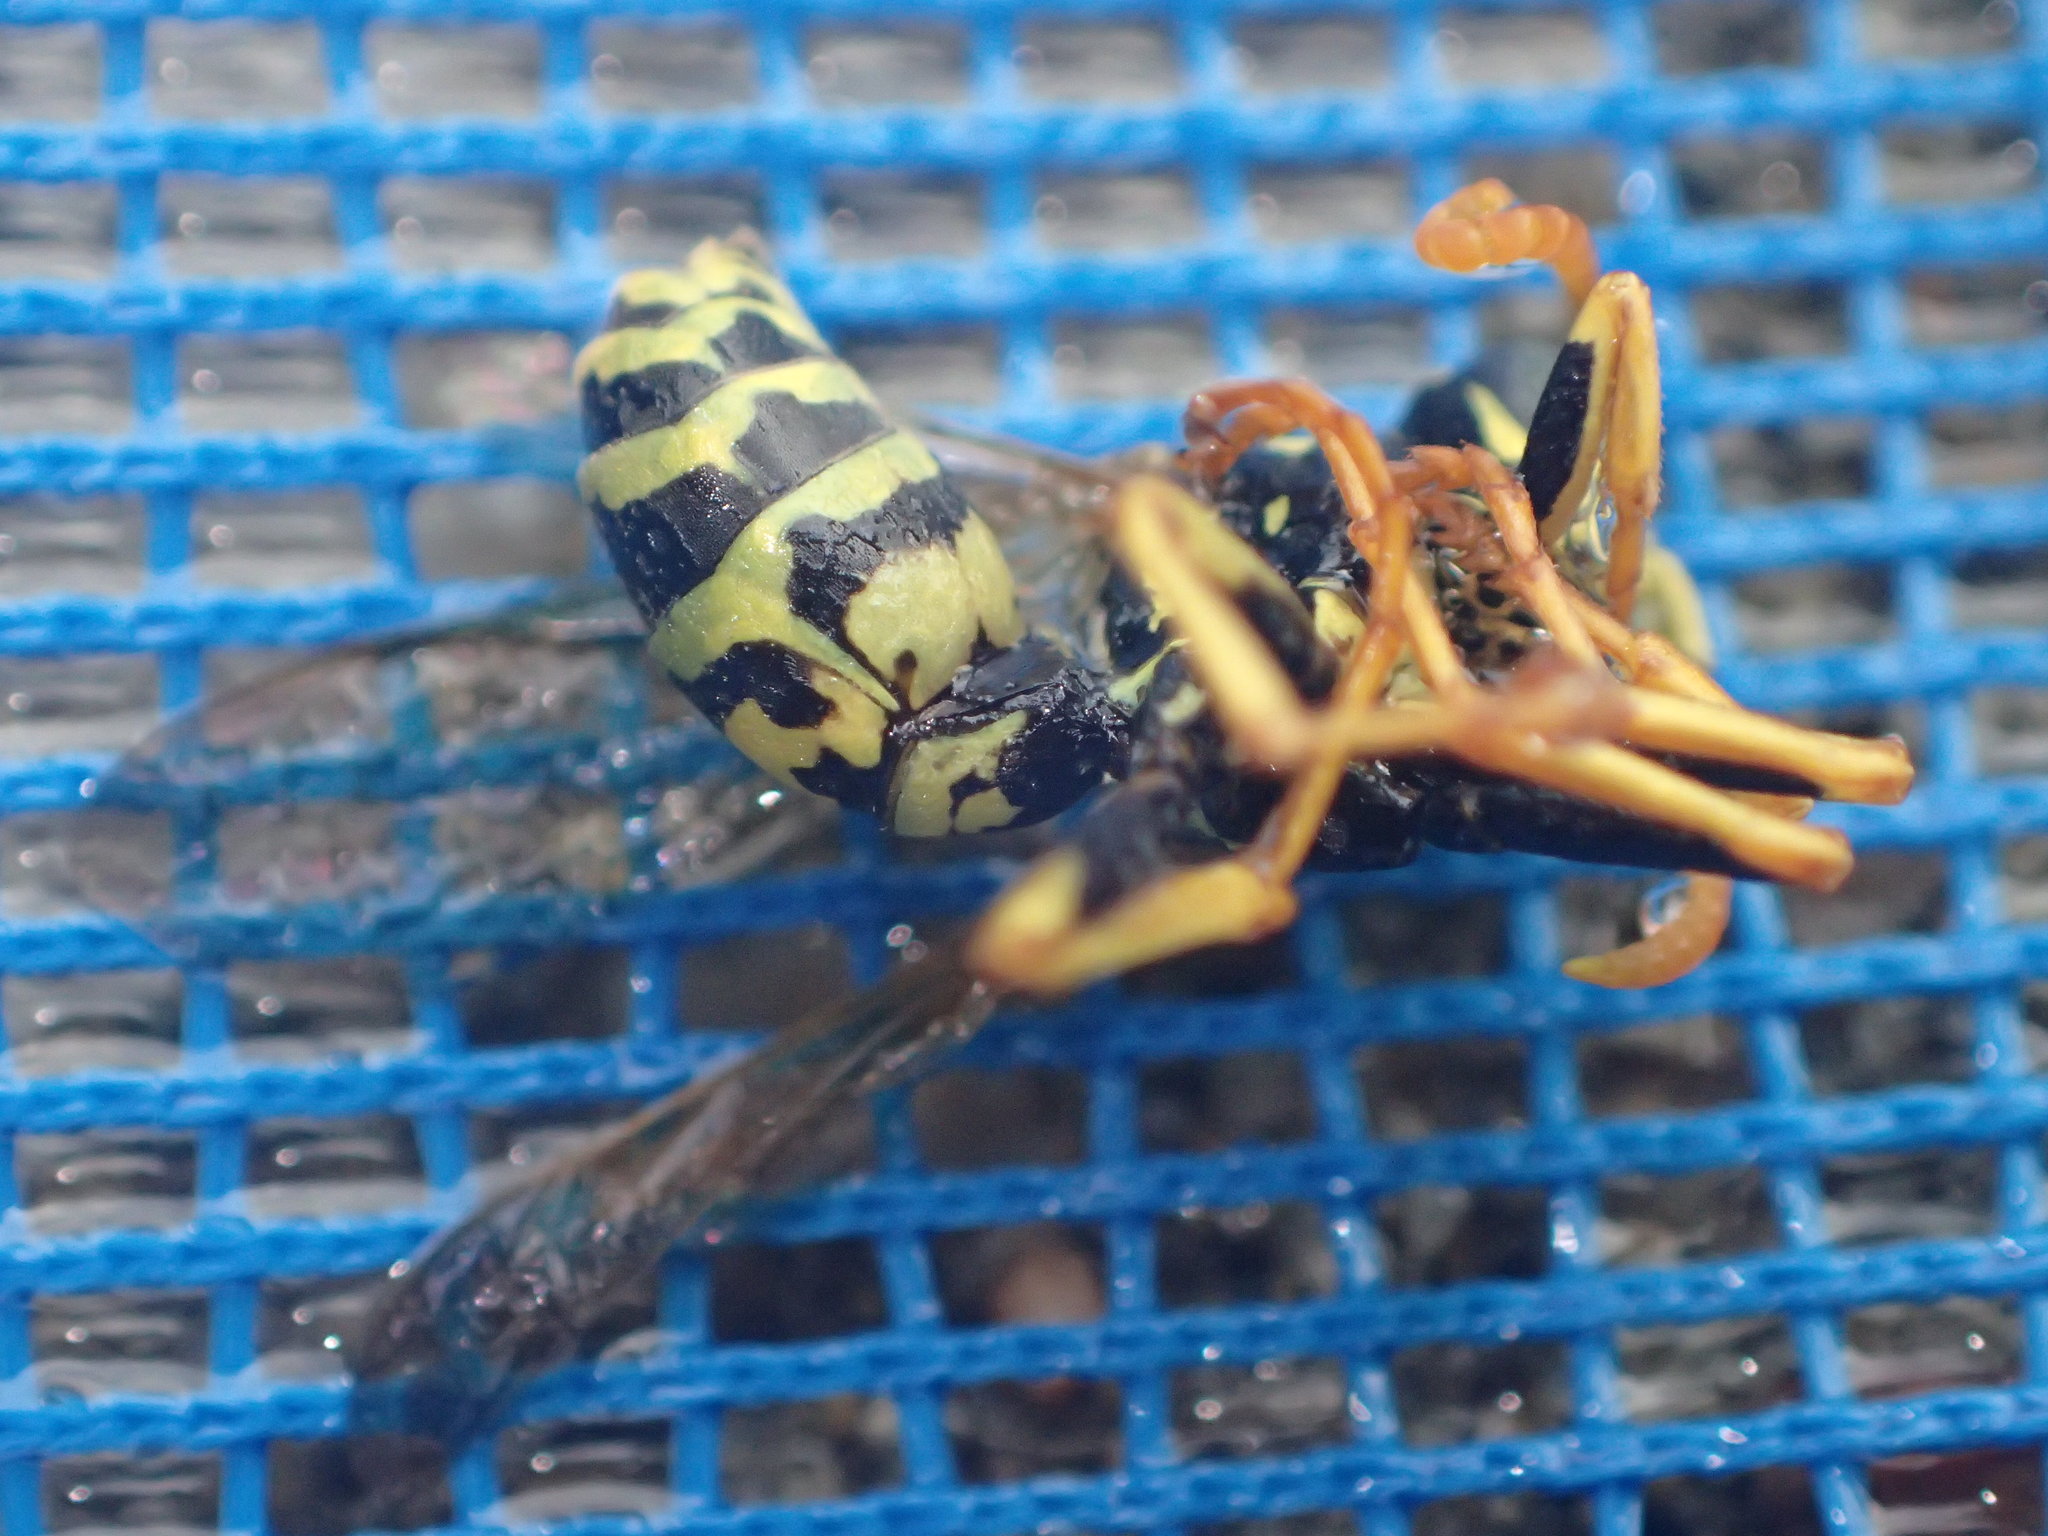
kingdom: Animalia
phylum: Arthropoda
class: Insecta
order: Hymenoptera
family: Eumenidae
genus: Polistes
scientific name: Polistes dominula
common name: Paper wasp
